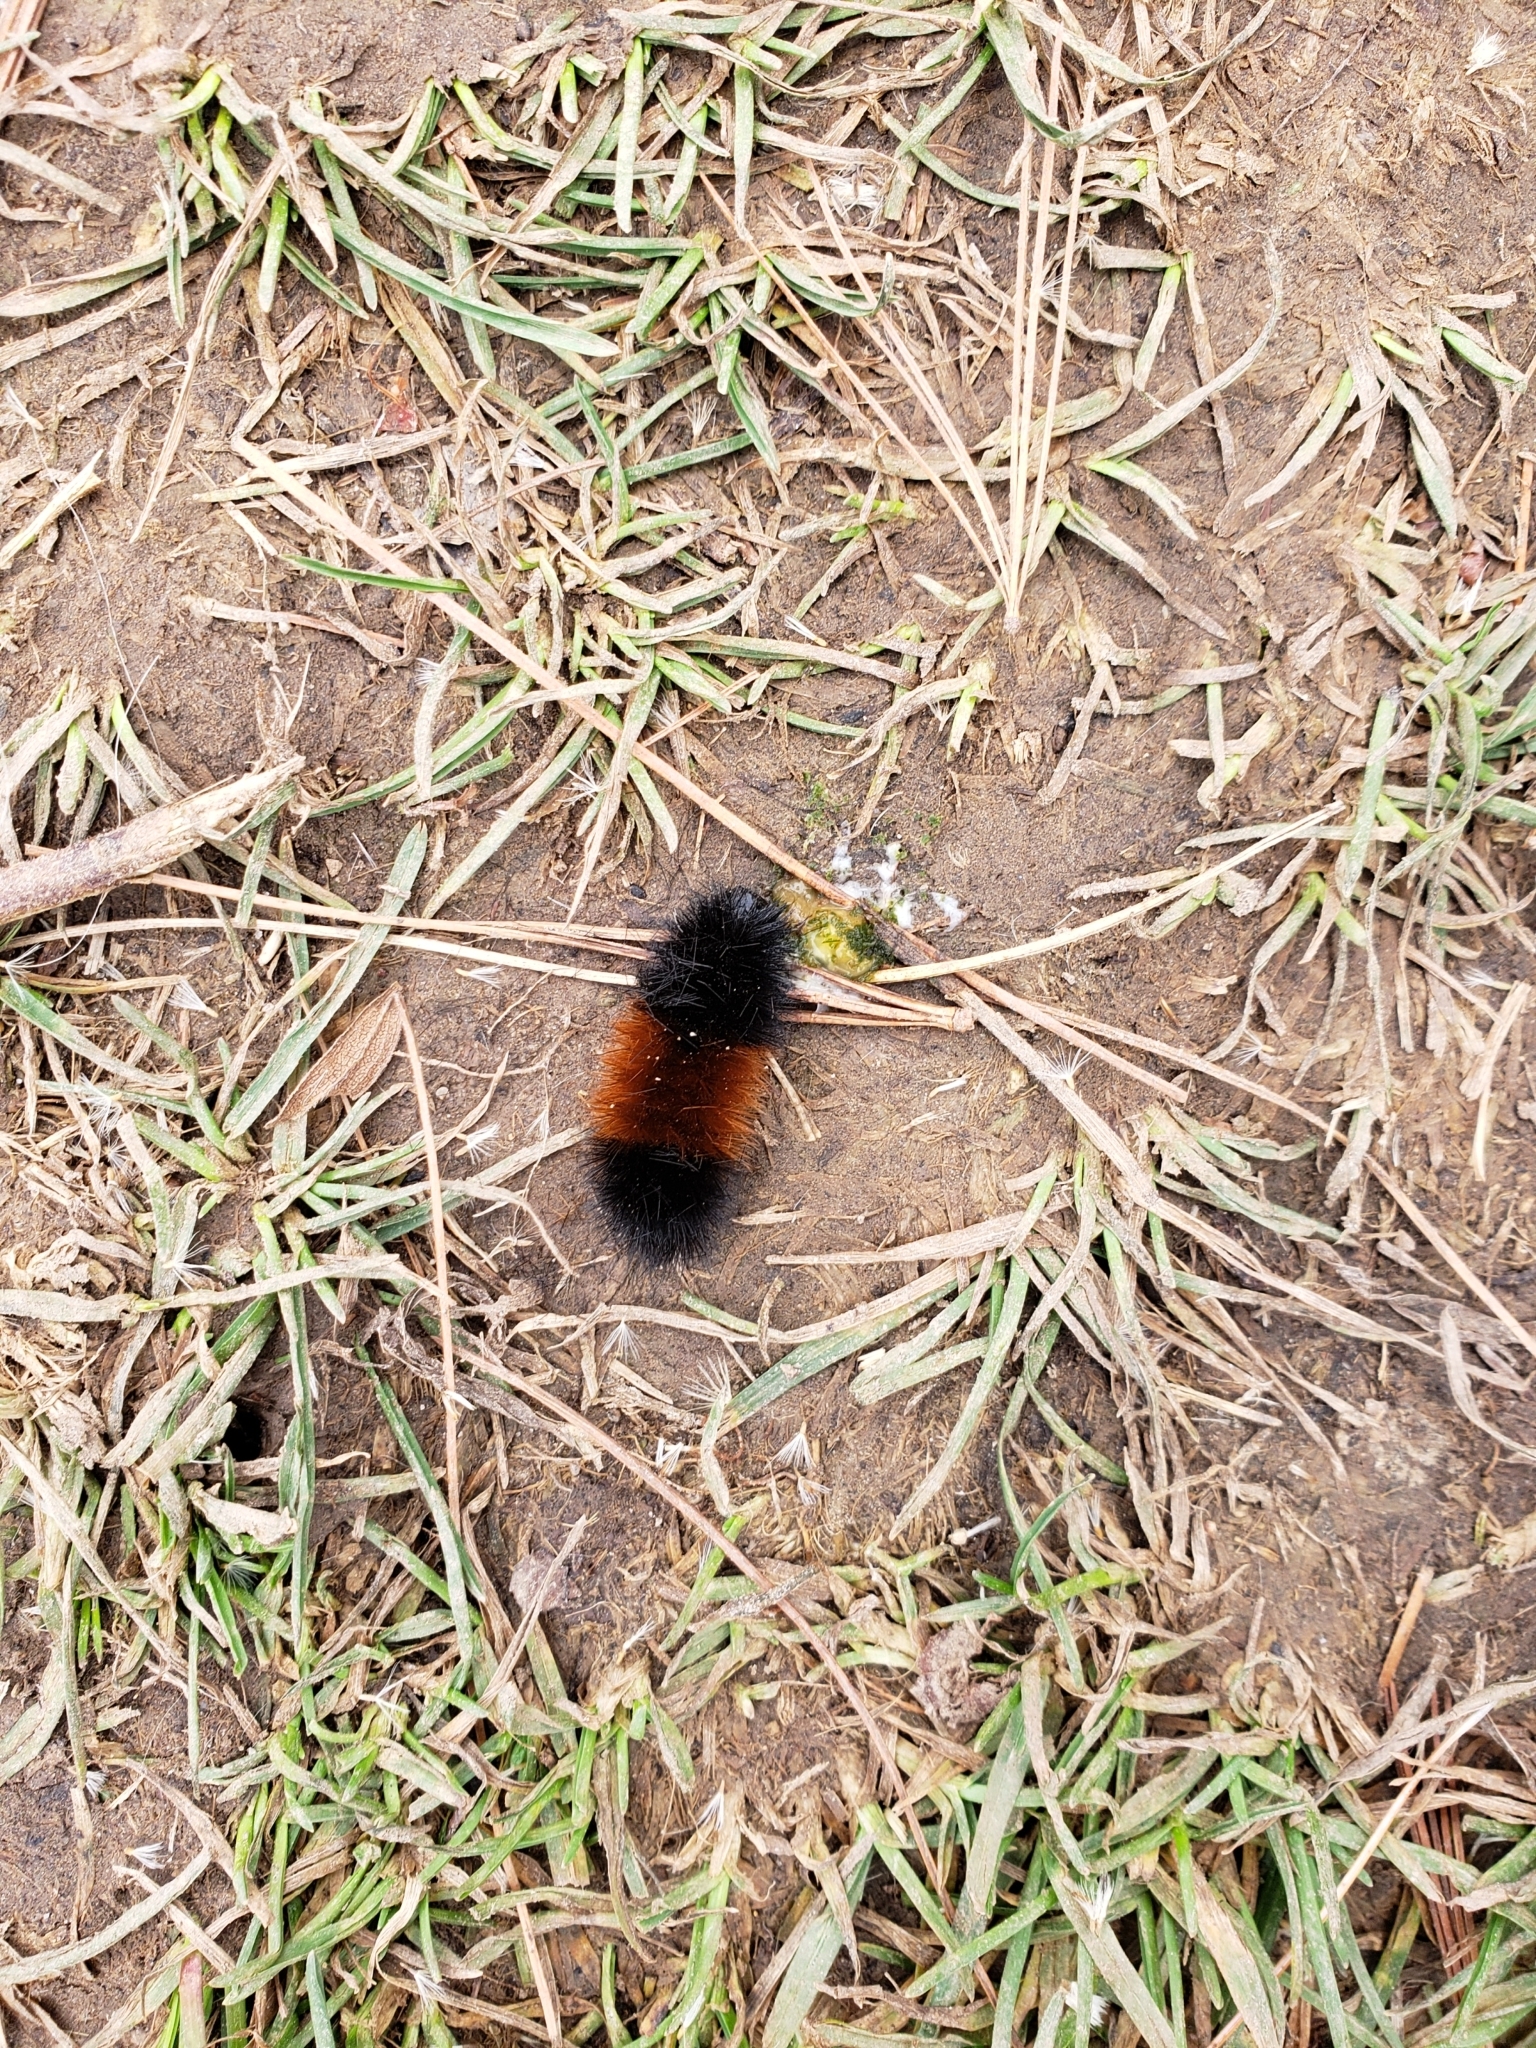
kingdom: Animalia
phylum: Arthropoda
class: Insecta
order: Lepidoptera
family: Erebidae
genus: Pyrrharctia
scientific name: Pyrrharctia isabella
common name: Isabella tiger moth
